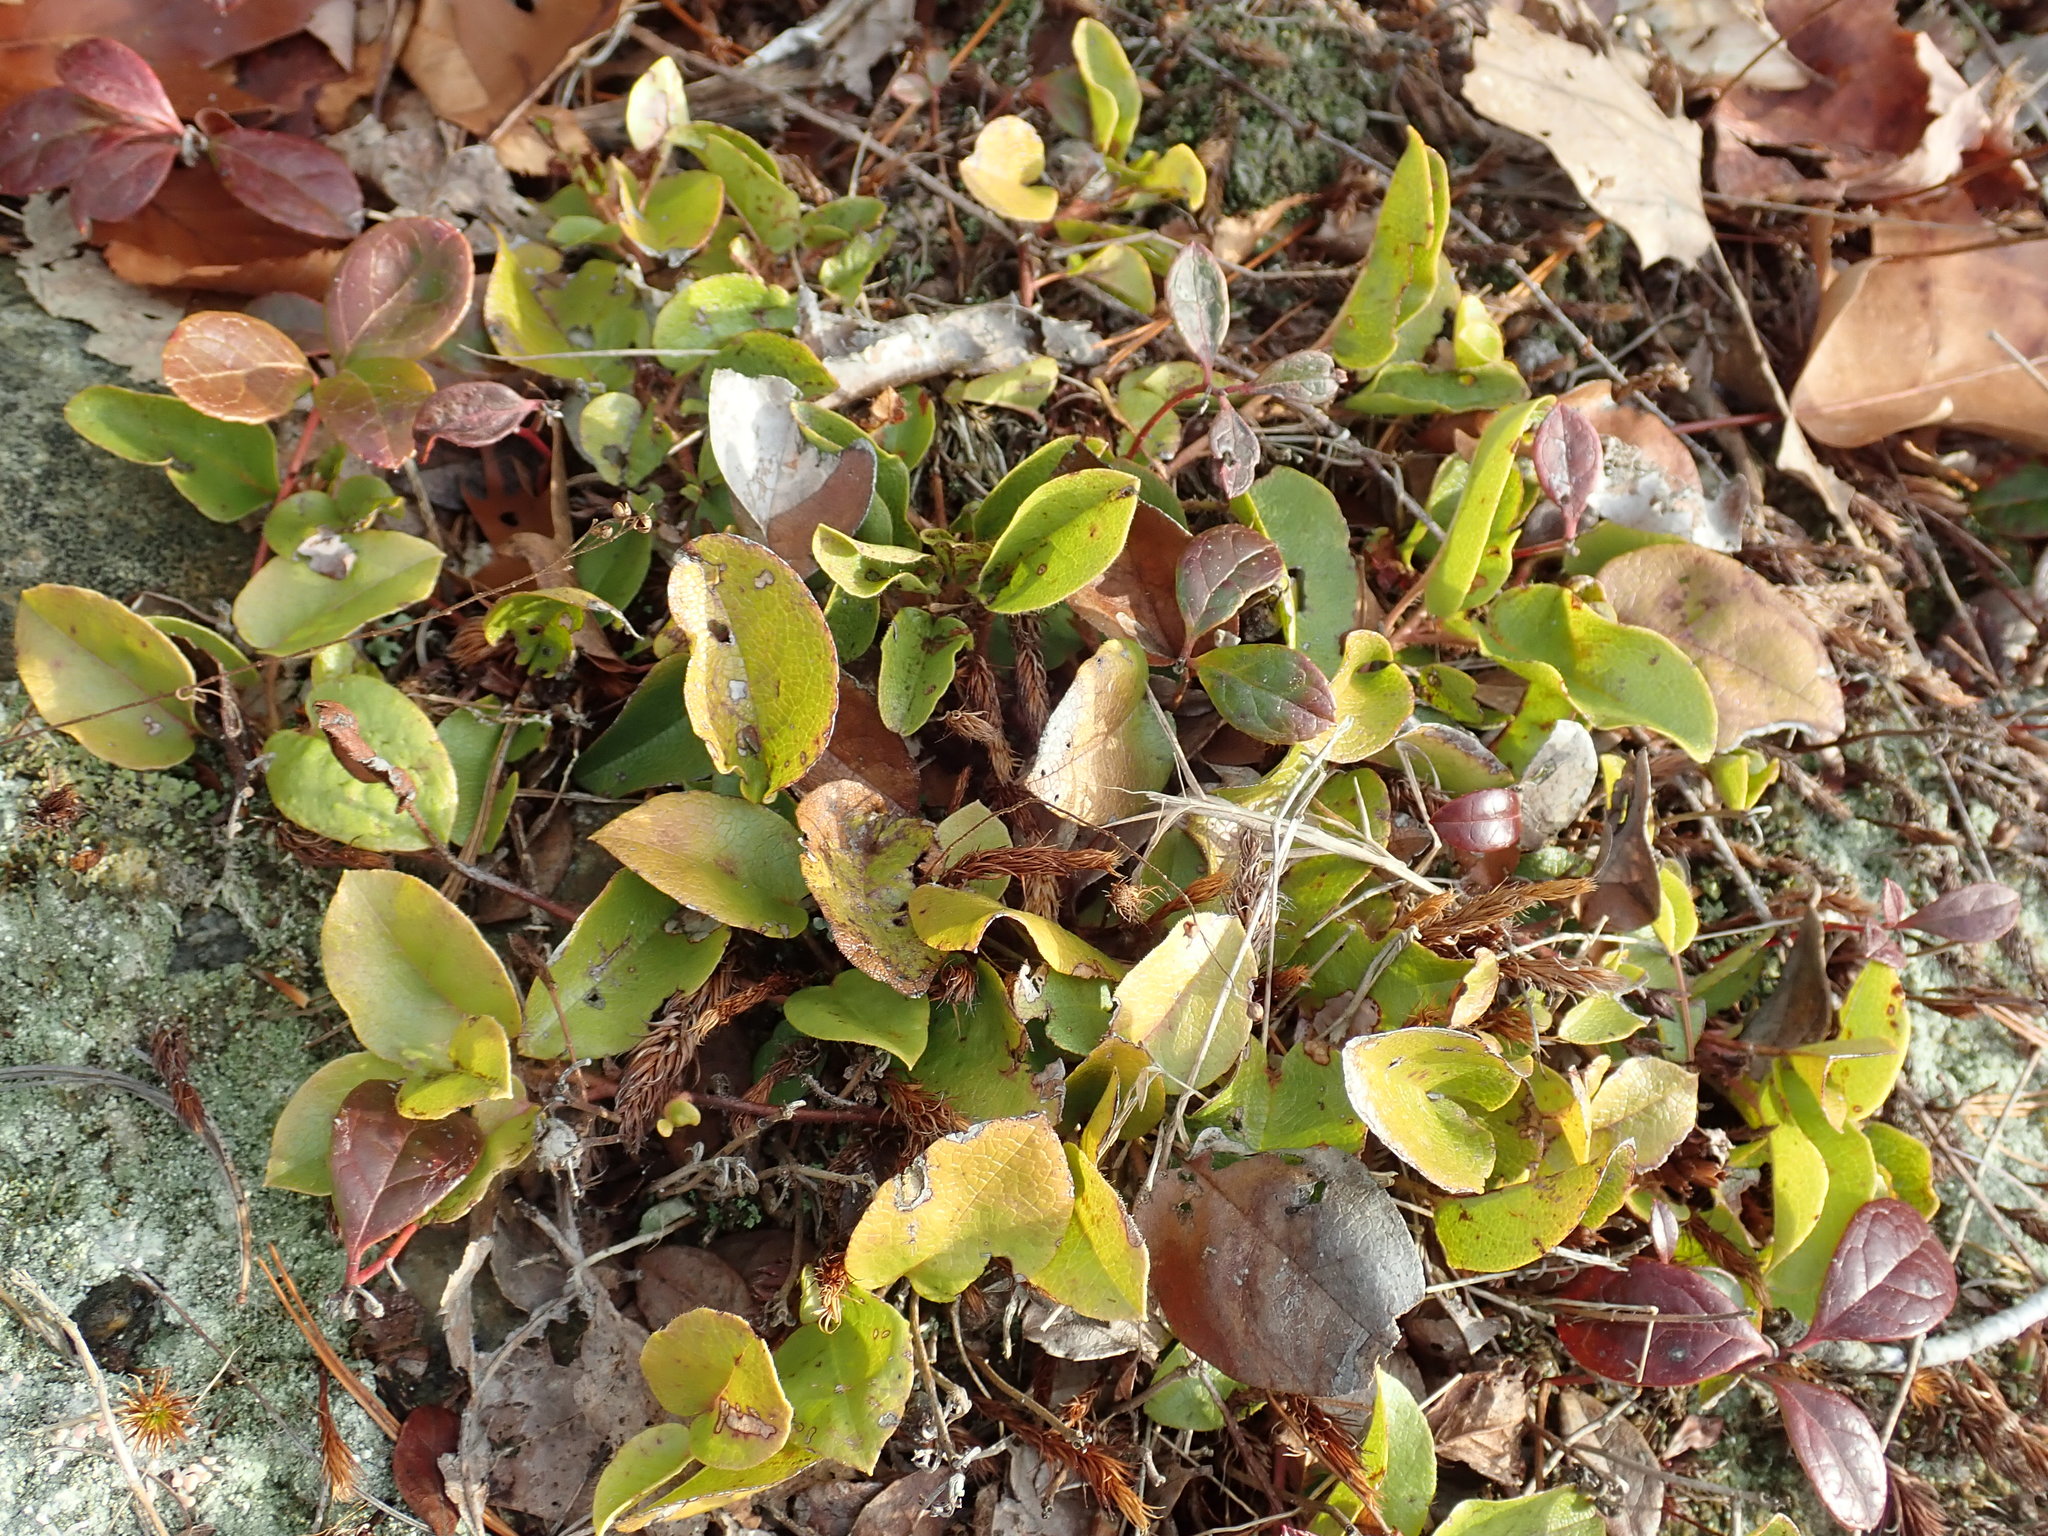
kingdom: Plantae
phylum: Tracheophyta
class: Magnoliopsida
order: Ericales
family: Ericaceae
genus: Epigaea
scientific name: Epigaea repens
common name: Gravelroot
